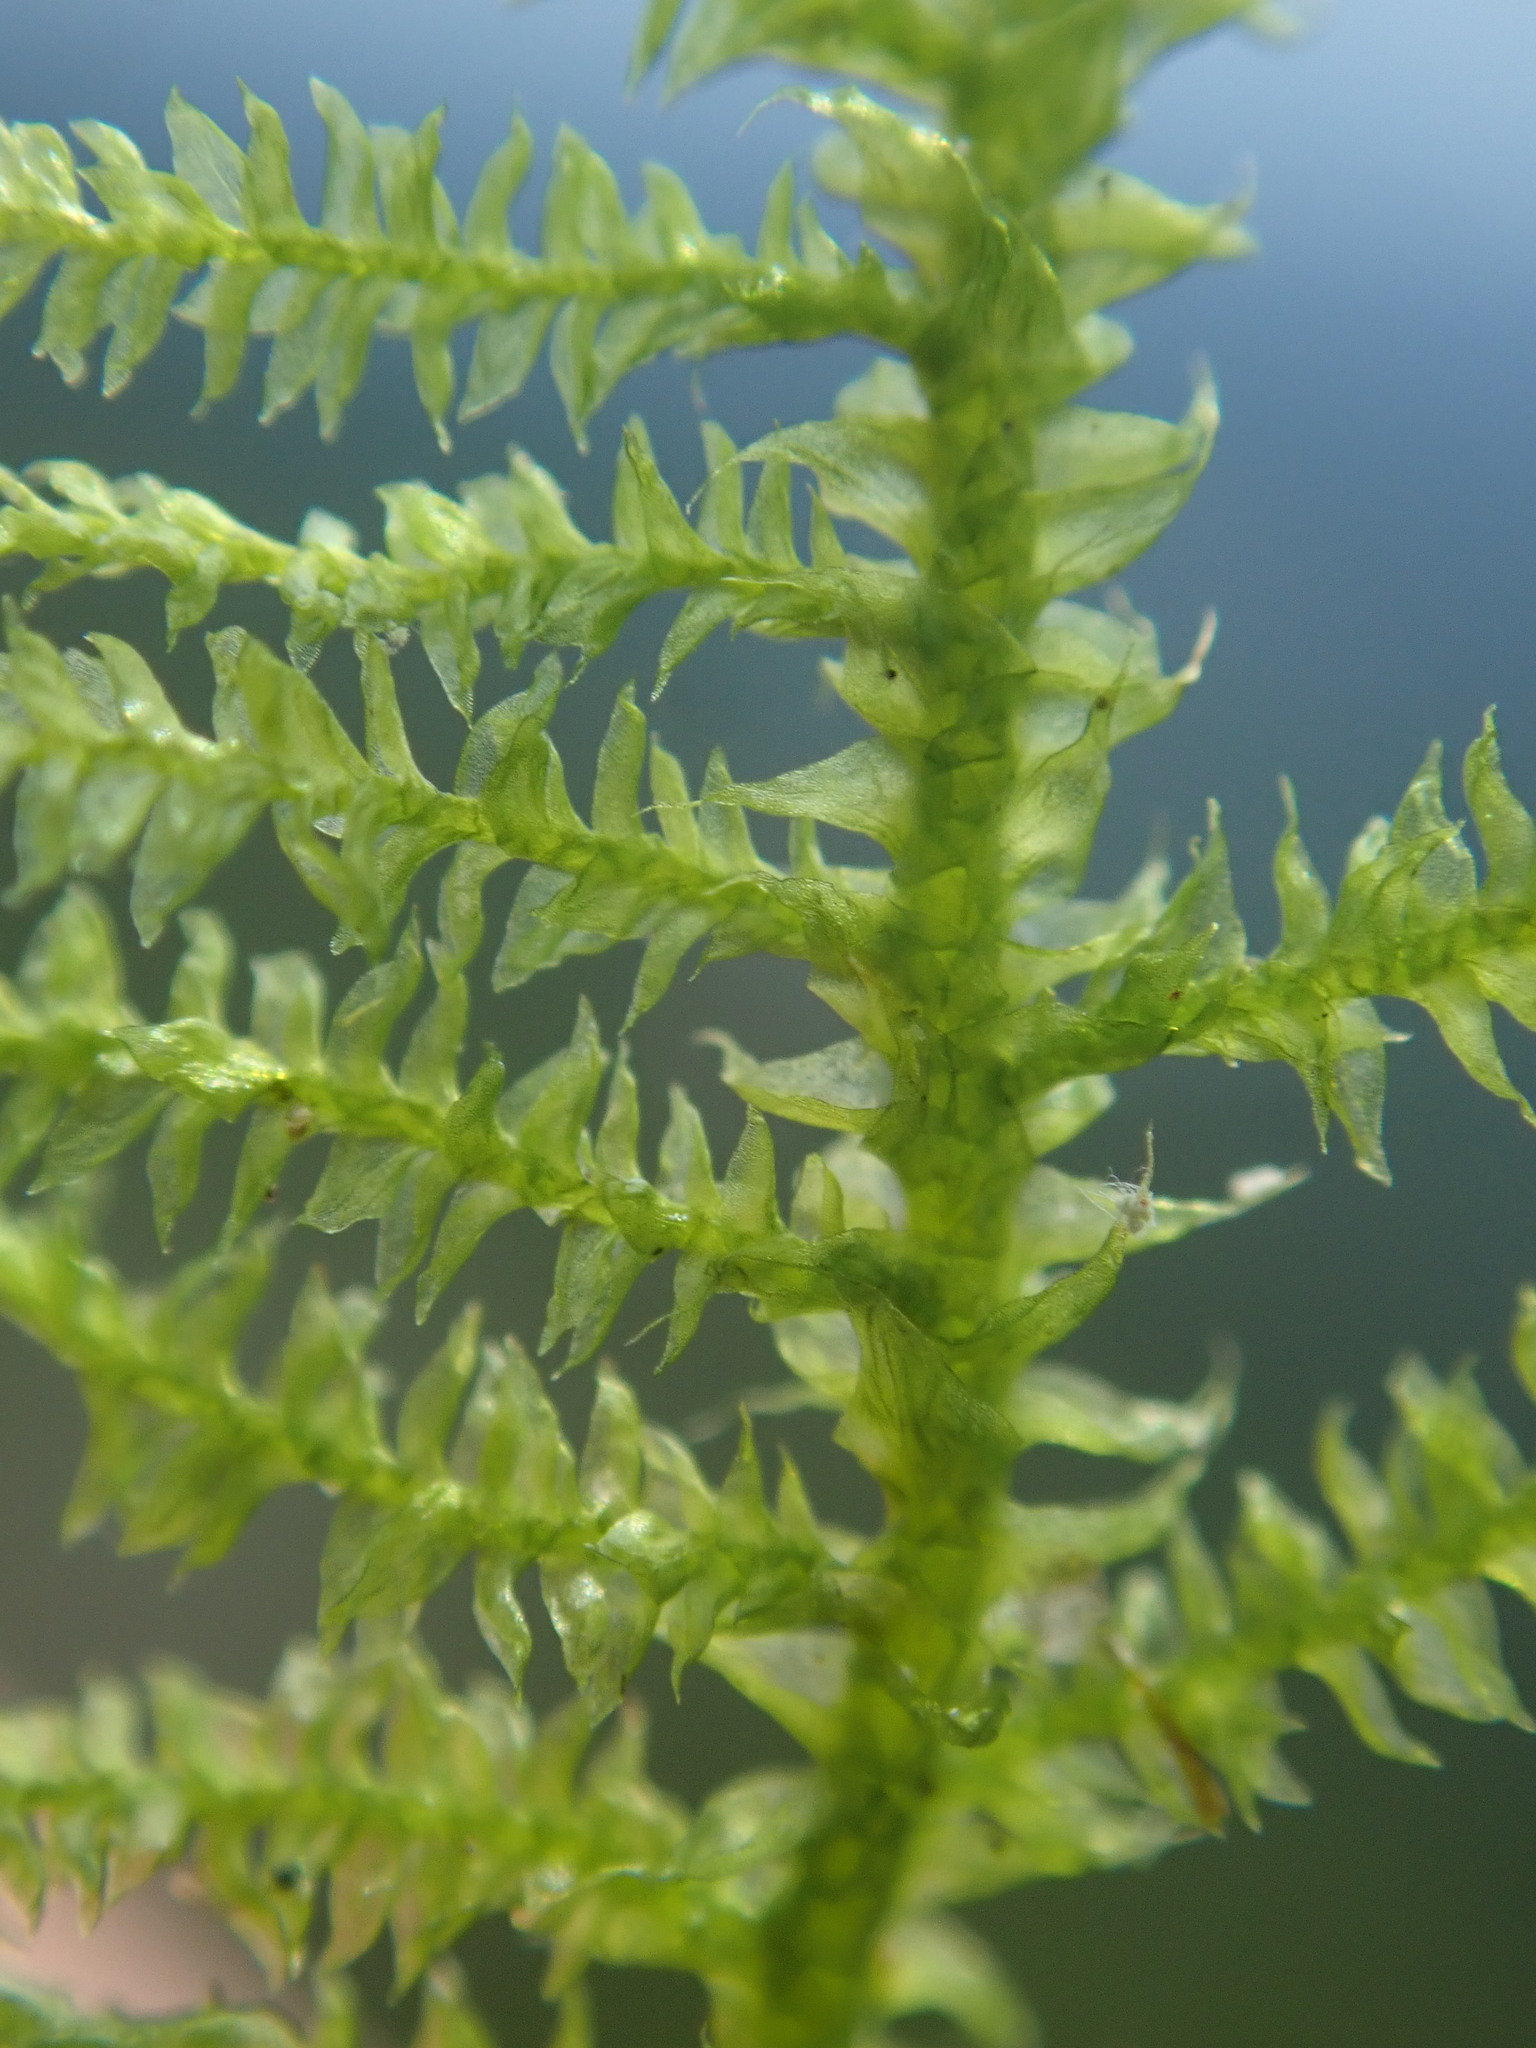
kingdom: Plantae
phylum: Bryophyta
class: Bryopsida
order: Hypnales
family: Heterocladiellaceae
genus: Heterocladiella
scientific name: Heterocladiella procurrens
